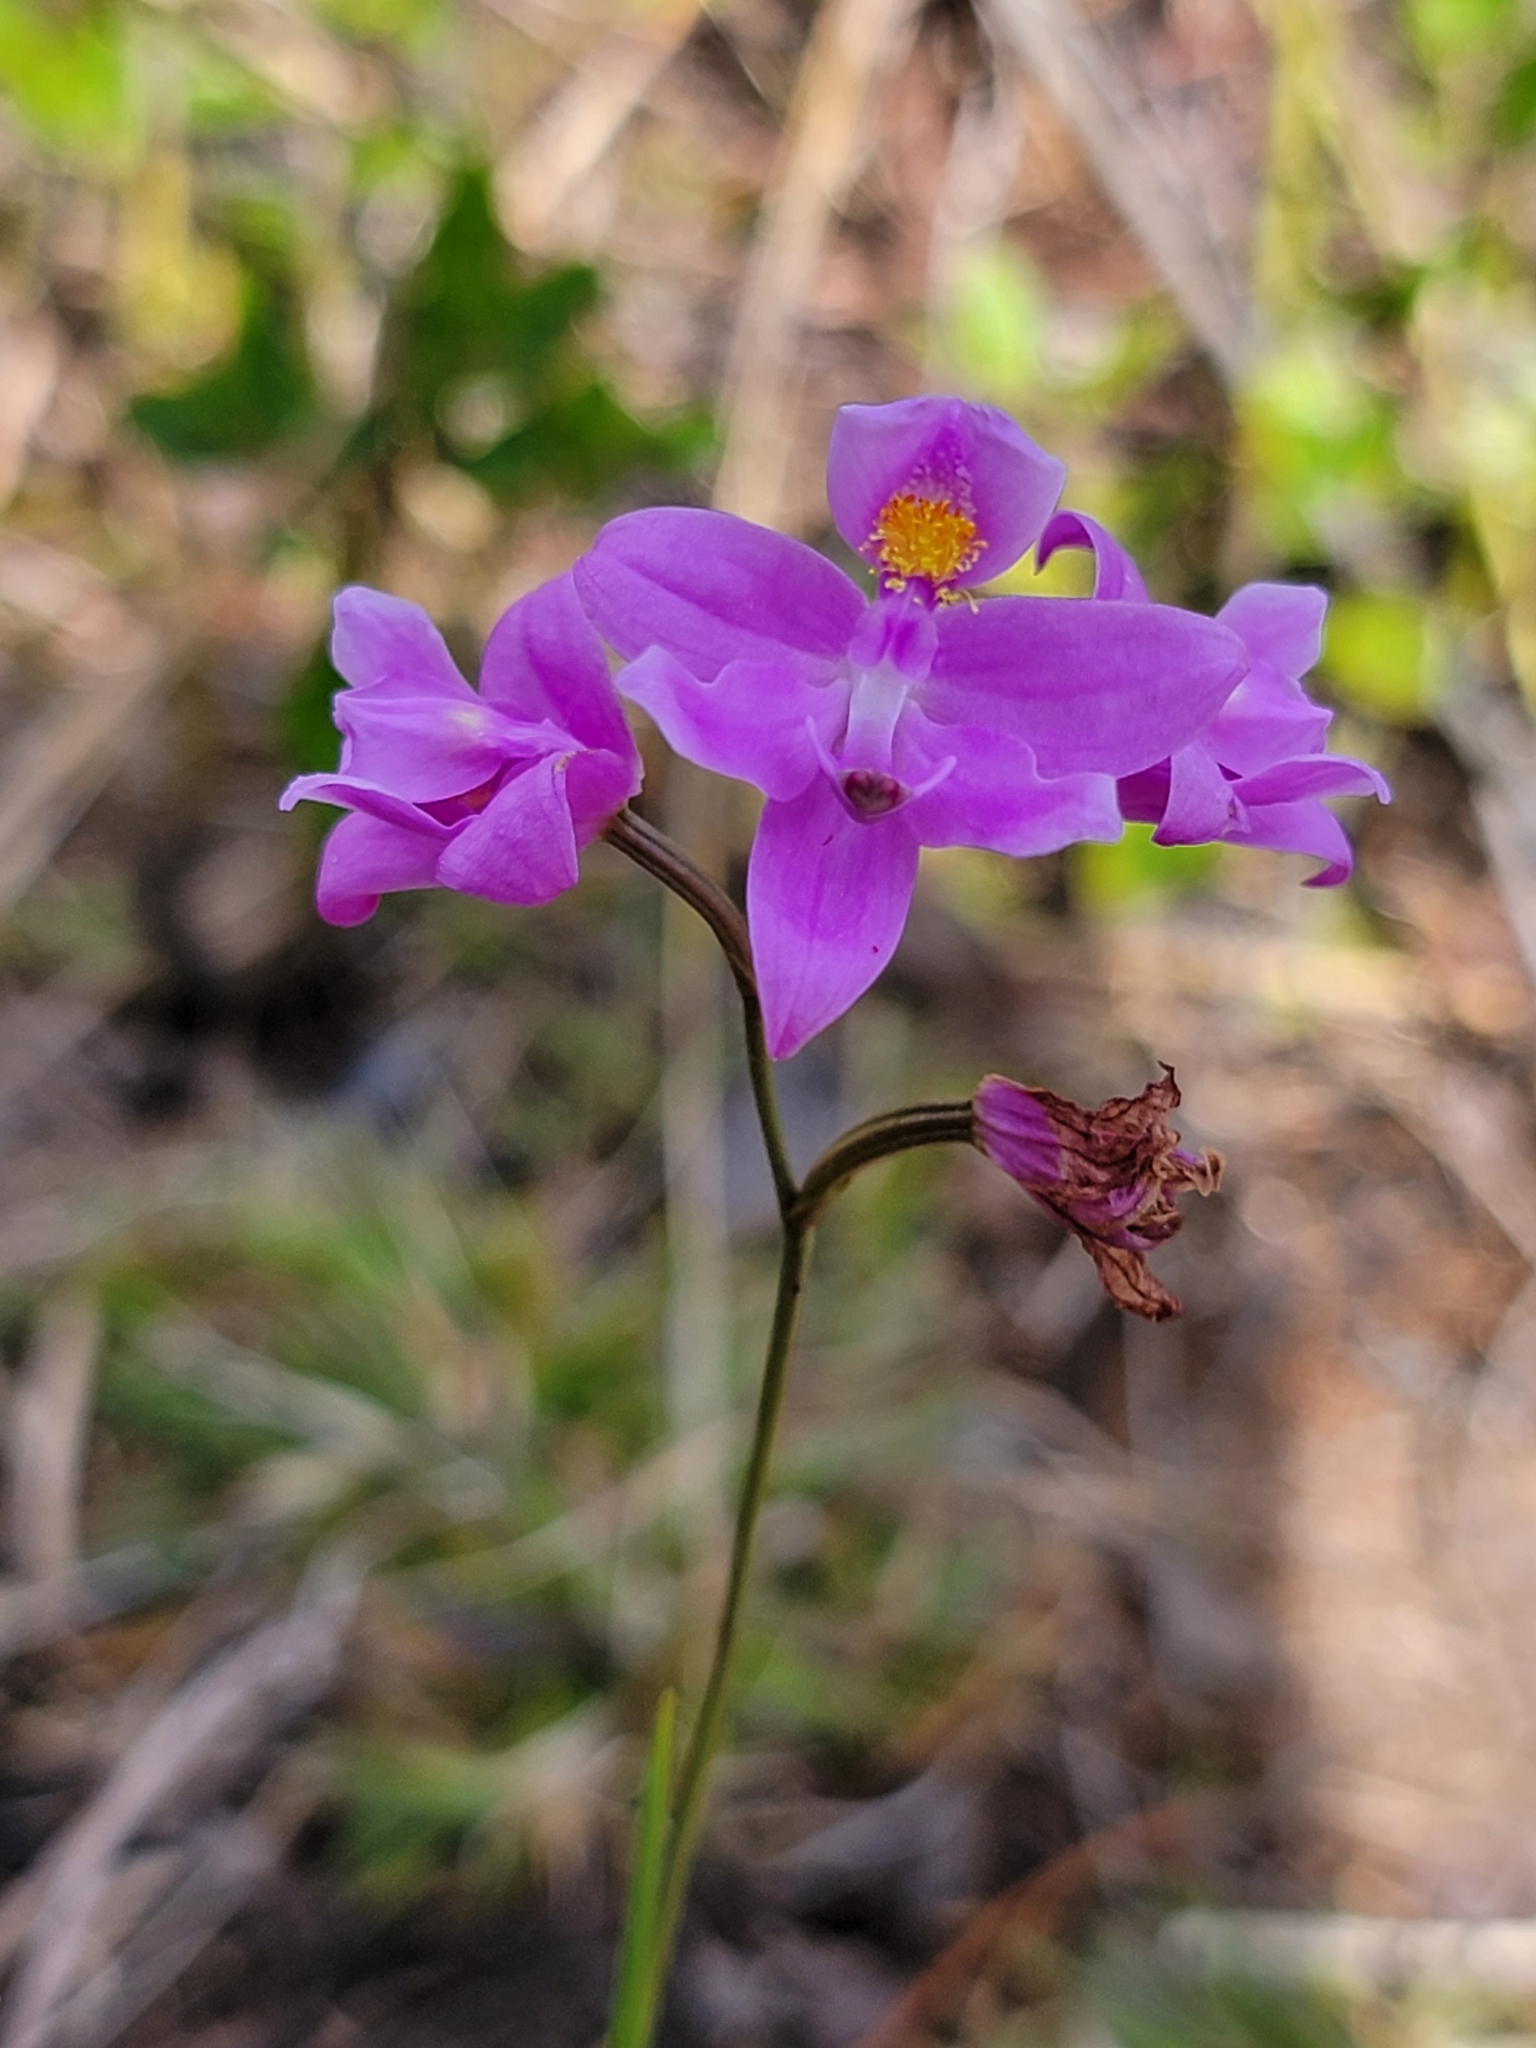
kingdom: Plantae
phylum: Tracheophyta
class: Liliopsida
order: Asparagales
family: Orchidaceae
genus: Calopogon
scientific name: Calopogon barbatus
